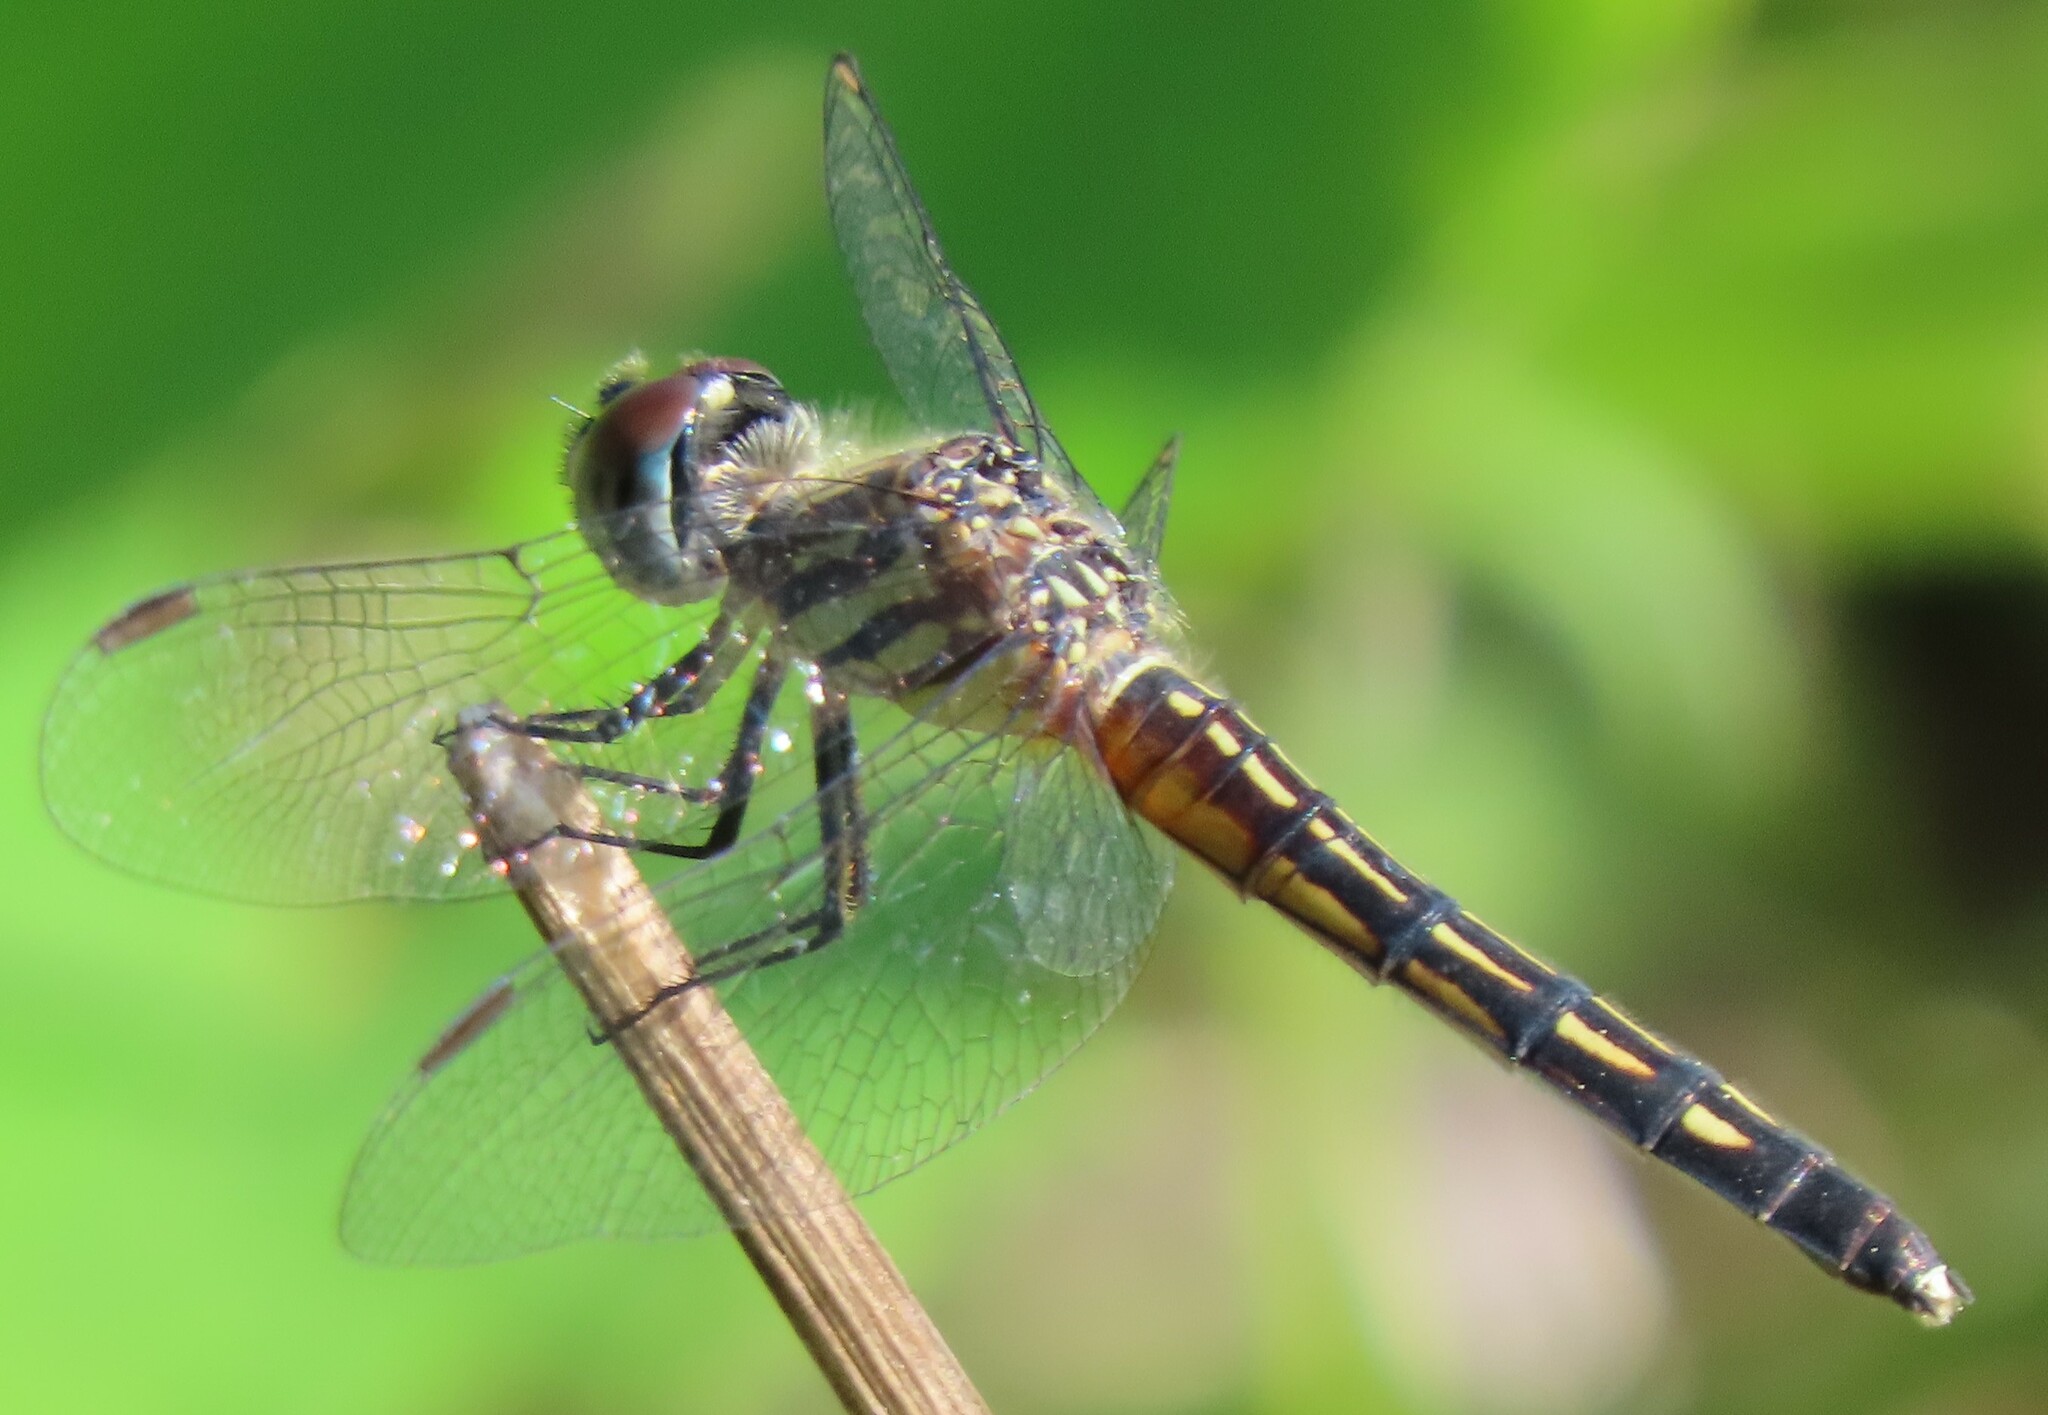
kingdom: Animalia
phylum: Arthropoda
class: Insecta
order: Odonata
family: Libellulidae
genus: Pachydiplax
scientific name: Pachydiplax longipennis
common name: Blue dasher
